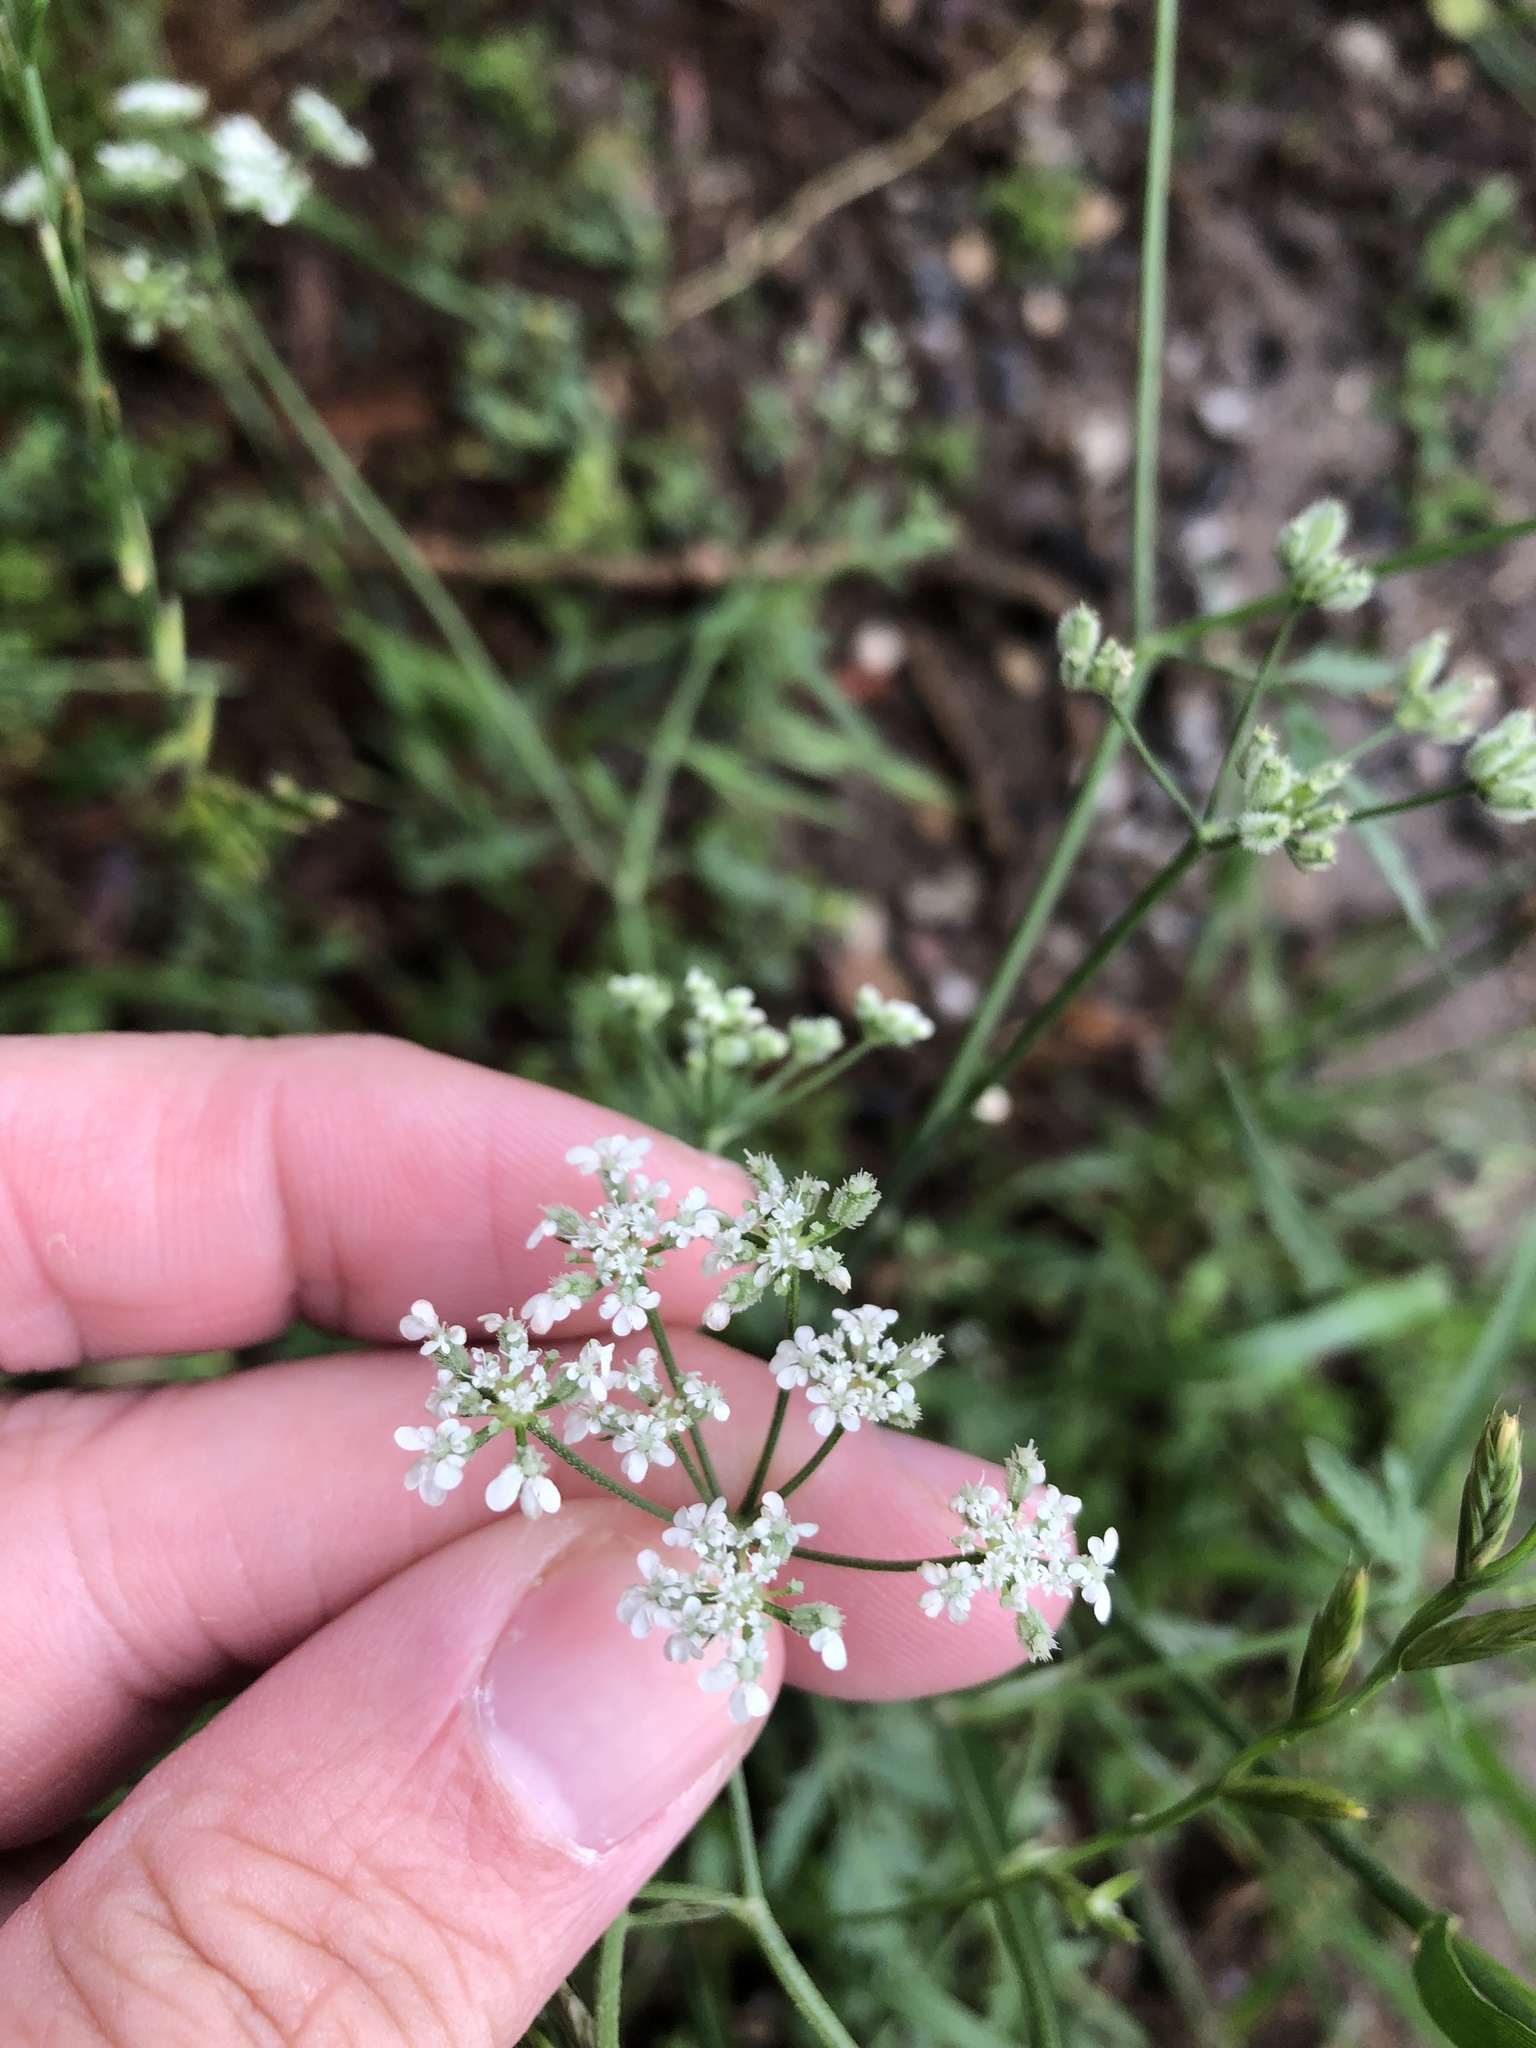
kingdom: Plantae
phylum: Tracheophyta
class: Magnoliopsida
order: Apiales
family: Apiaceae
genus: Torilis
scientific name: Torilis arvensis
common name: Spreading hedge-parsley
